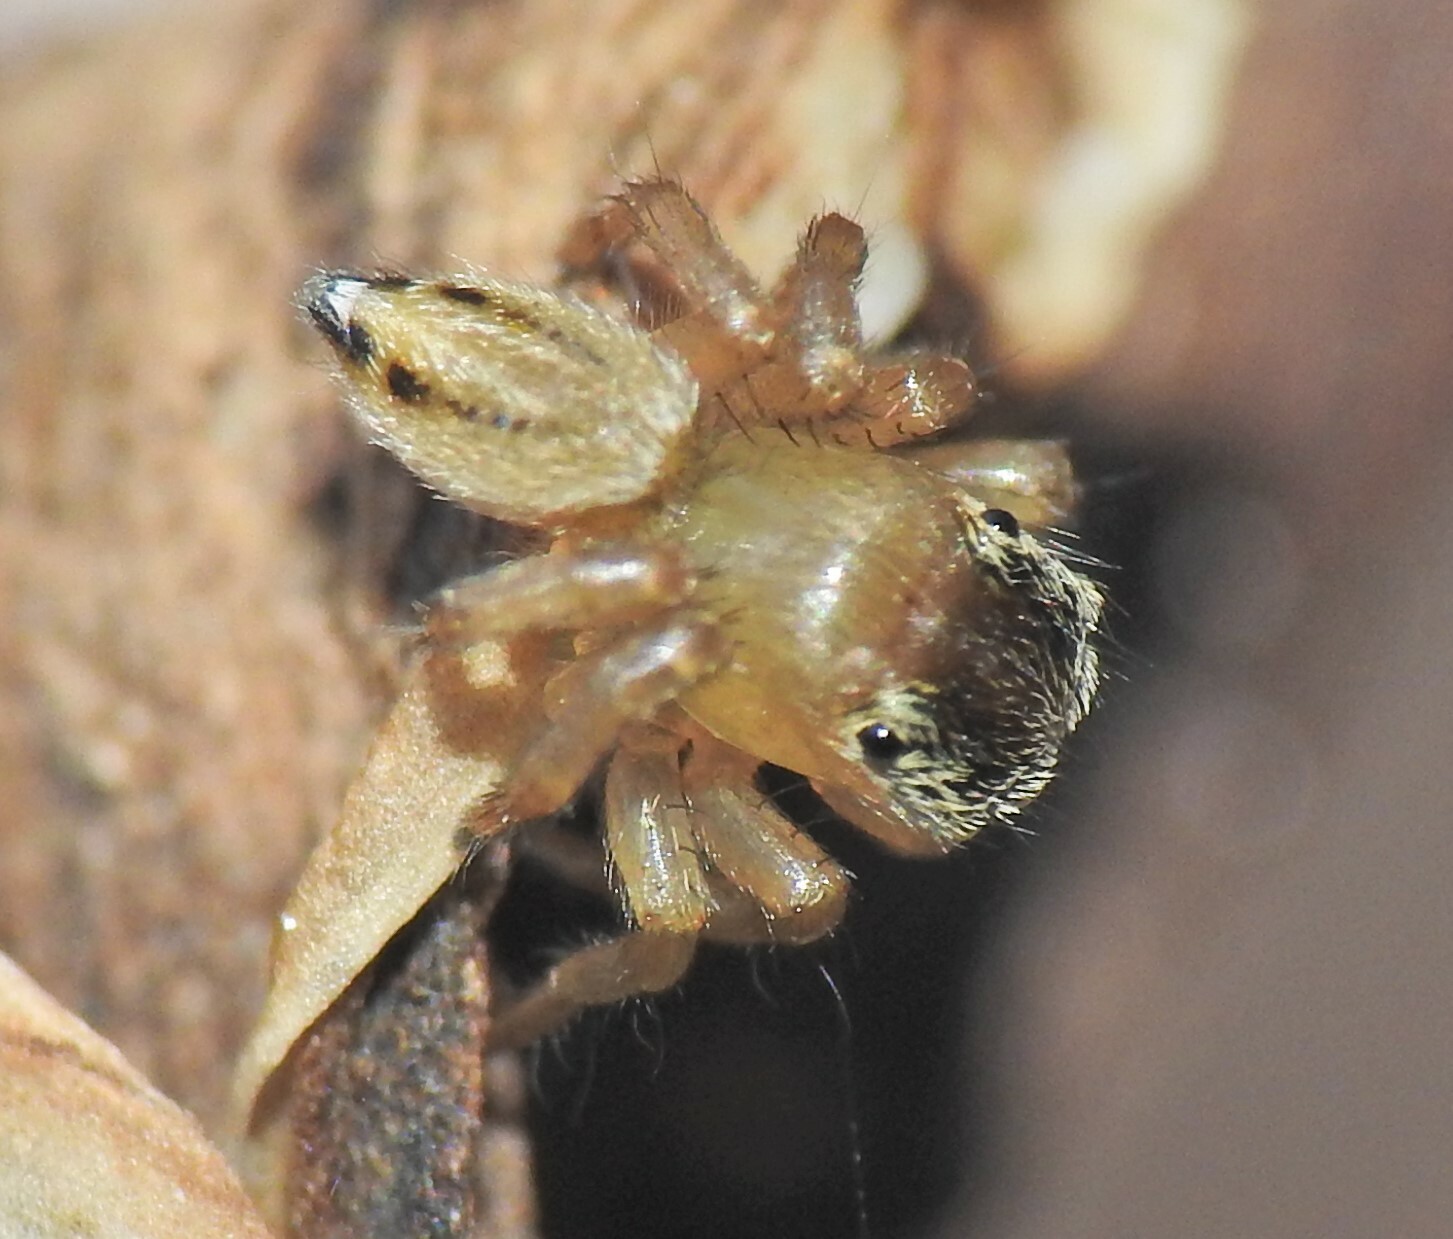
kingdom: Animalia
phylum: Arthropoda
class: Arachnida
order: Araneae
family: Salticidae
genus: Maratus
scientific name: Maratus scutulatus
